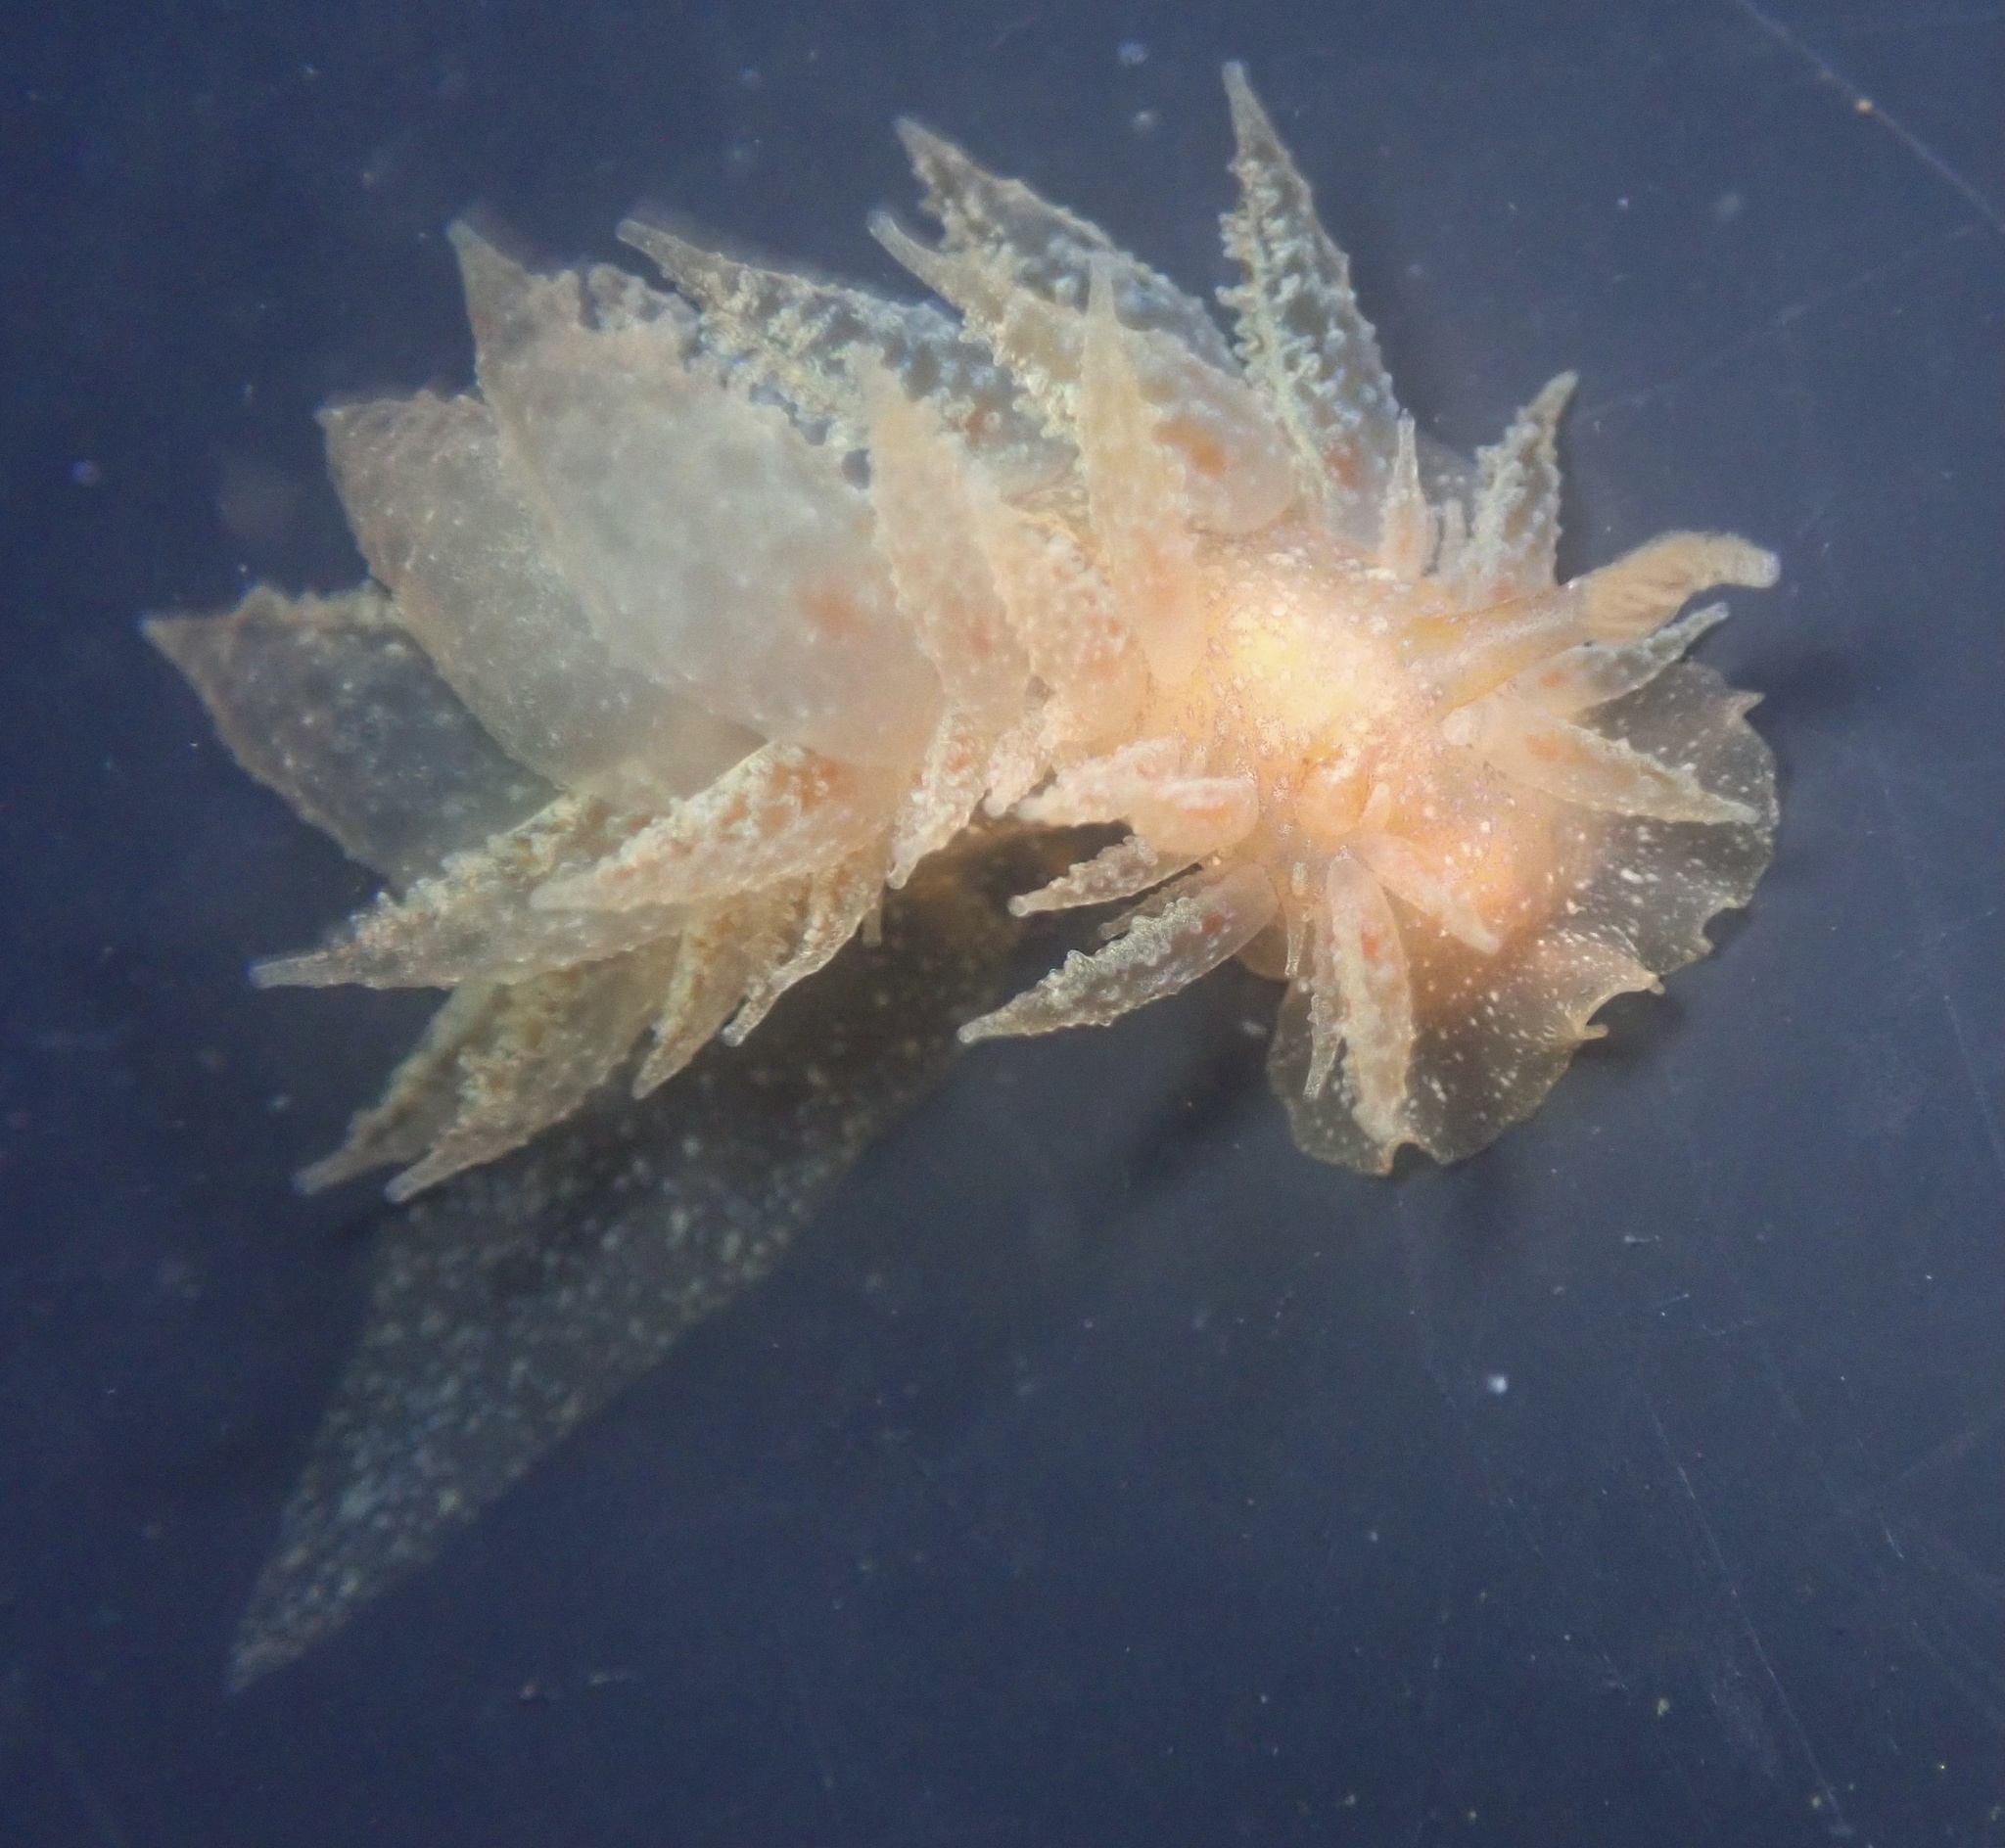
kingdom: Animalia
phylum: Mollusca
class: Gastropoda
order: Nudibranchia
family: Dironidae
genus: Dirona
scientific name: Dirona picta
